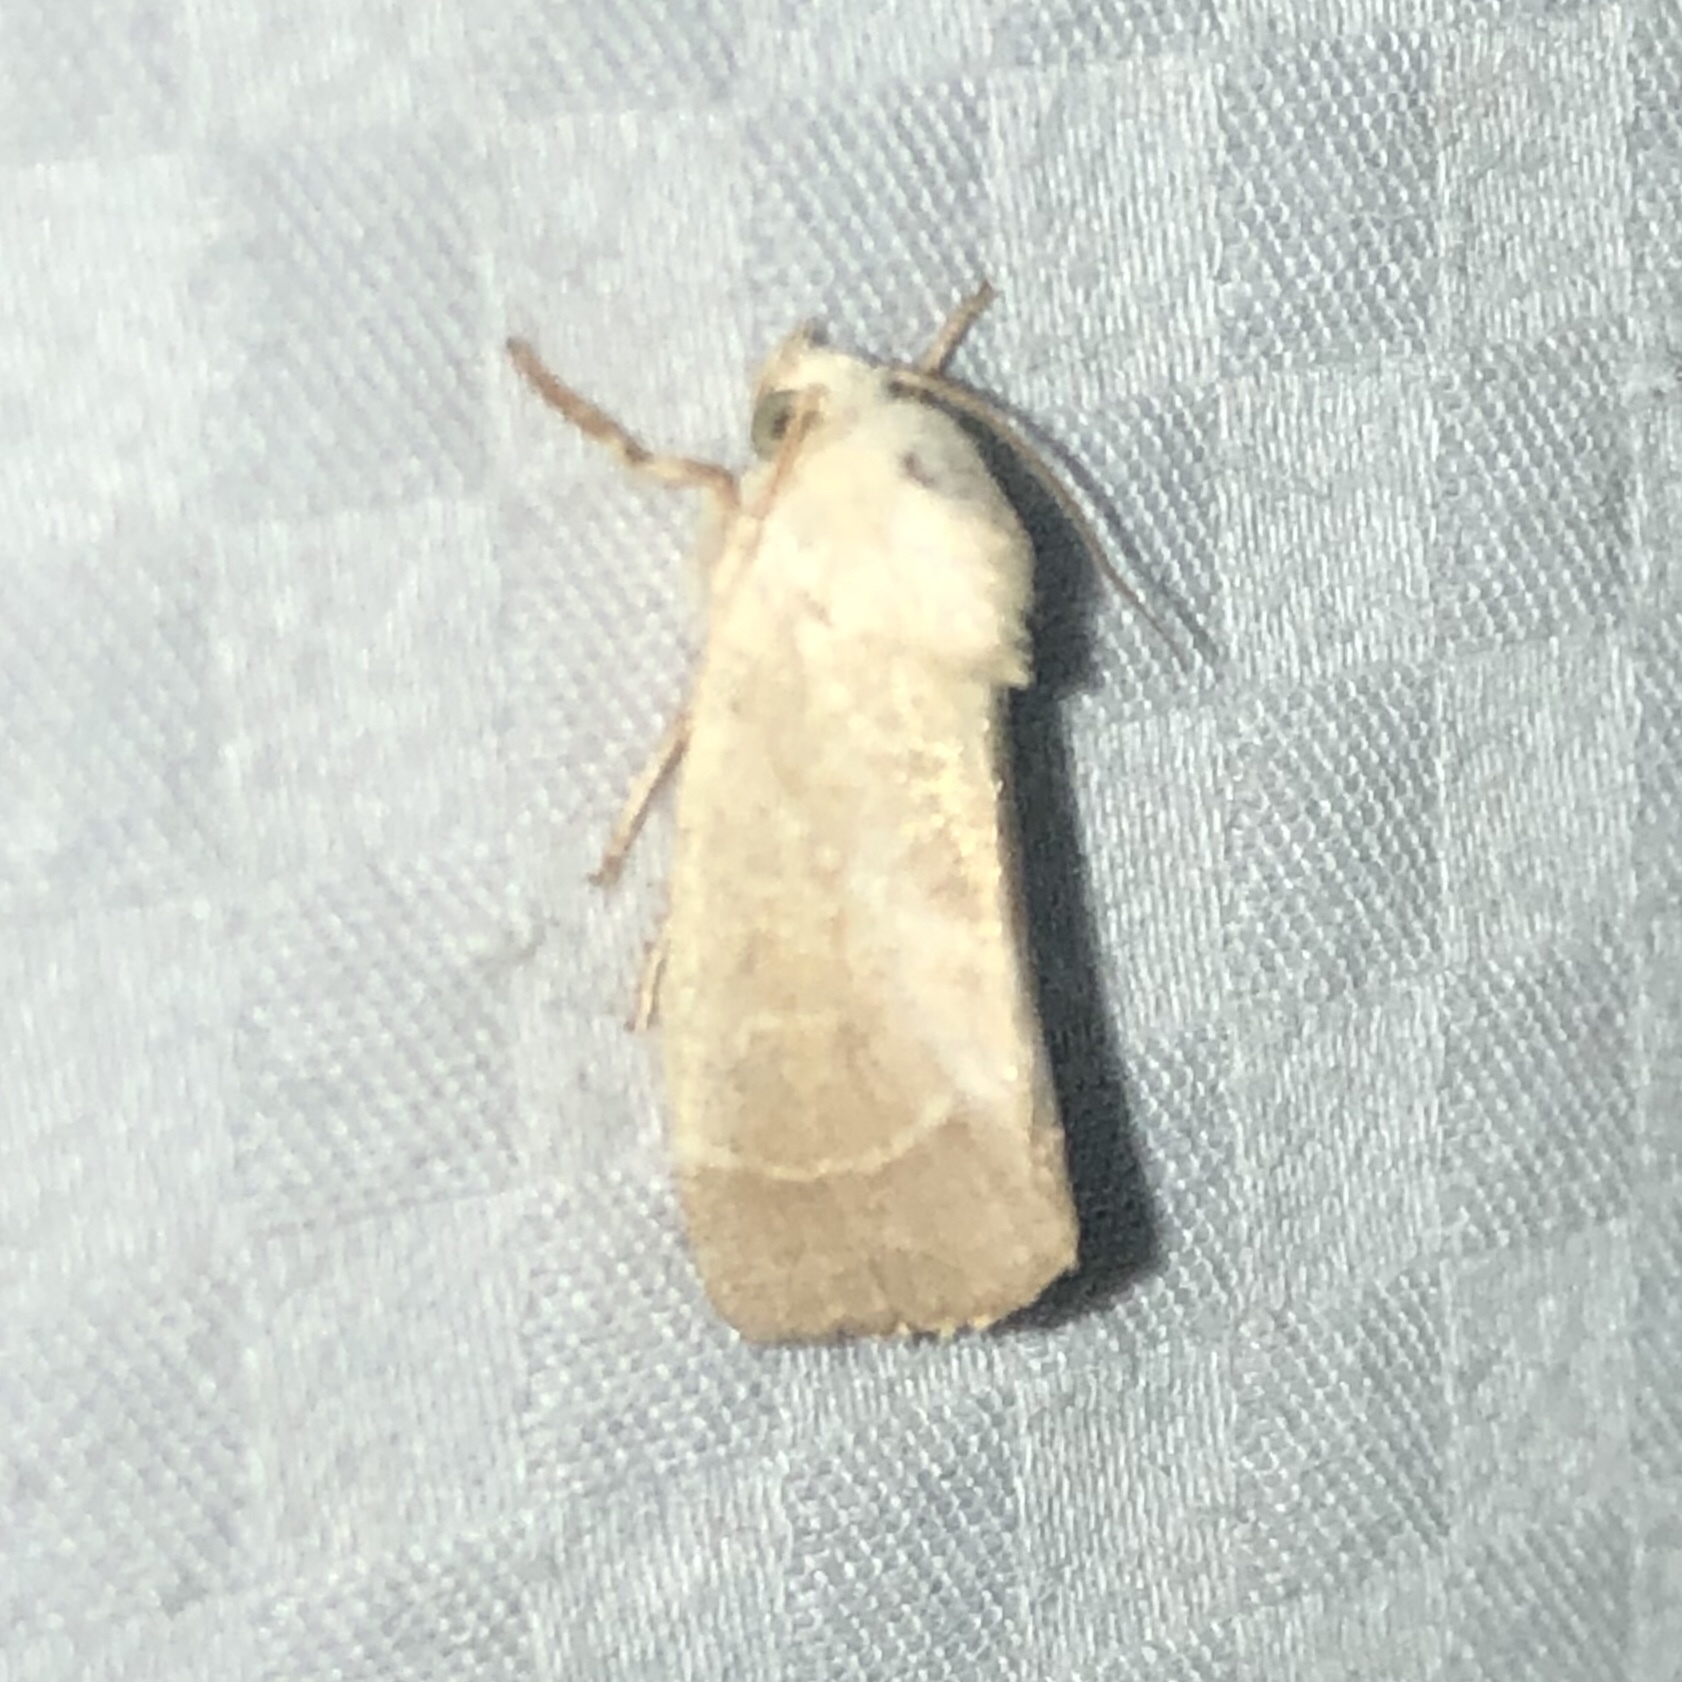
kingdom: Animalia
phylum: Arthropoda
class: Insecta
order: Lepidoptera
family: Noctuidae
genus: Cosmia
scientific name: Cosmia calami
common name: American dun-bar moth
